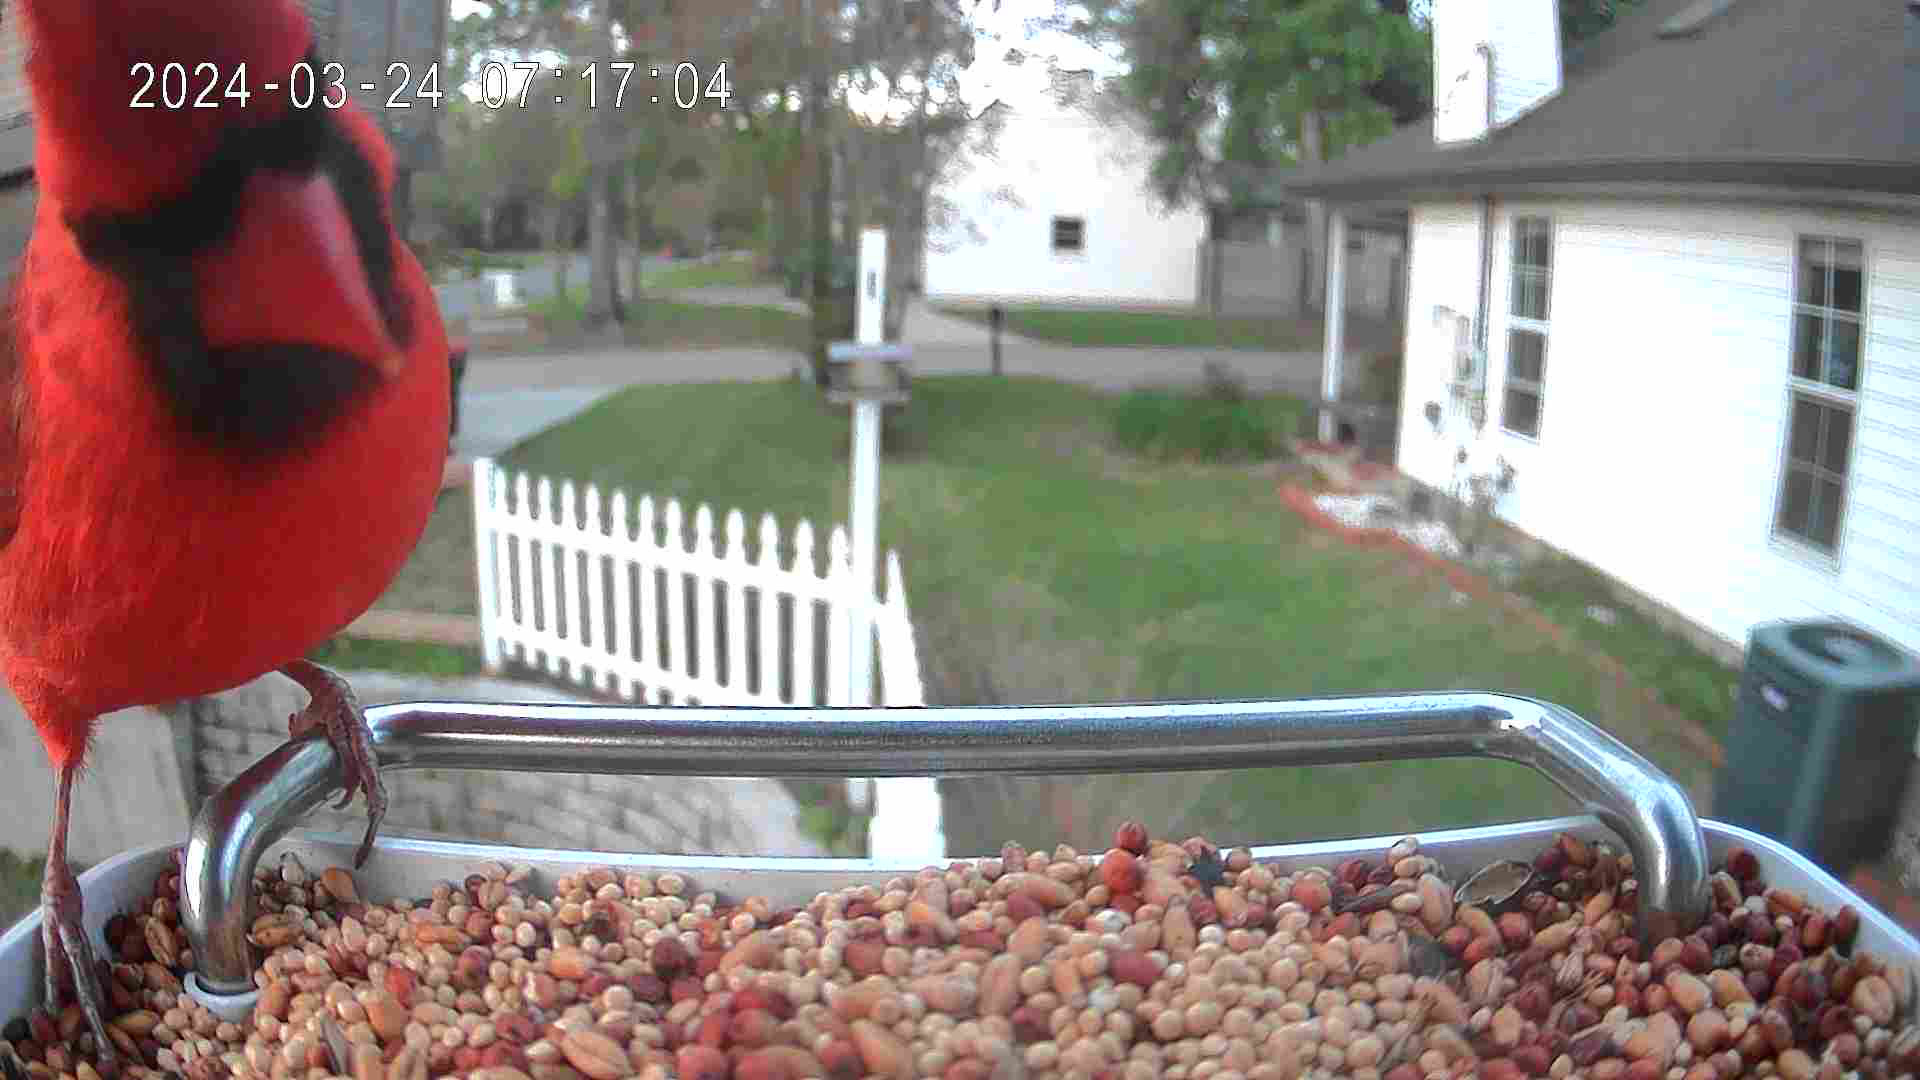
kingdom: Animalia
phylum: Chordata
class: Aves
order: Passeriformes
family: Cardinalidae
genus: Cardinalis
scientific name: Cardinalis cardinalis
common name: Northern cardinal
